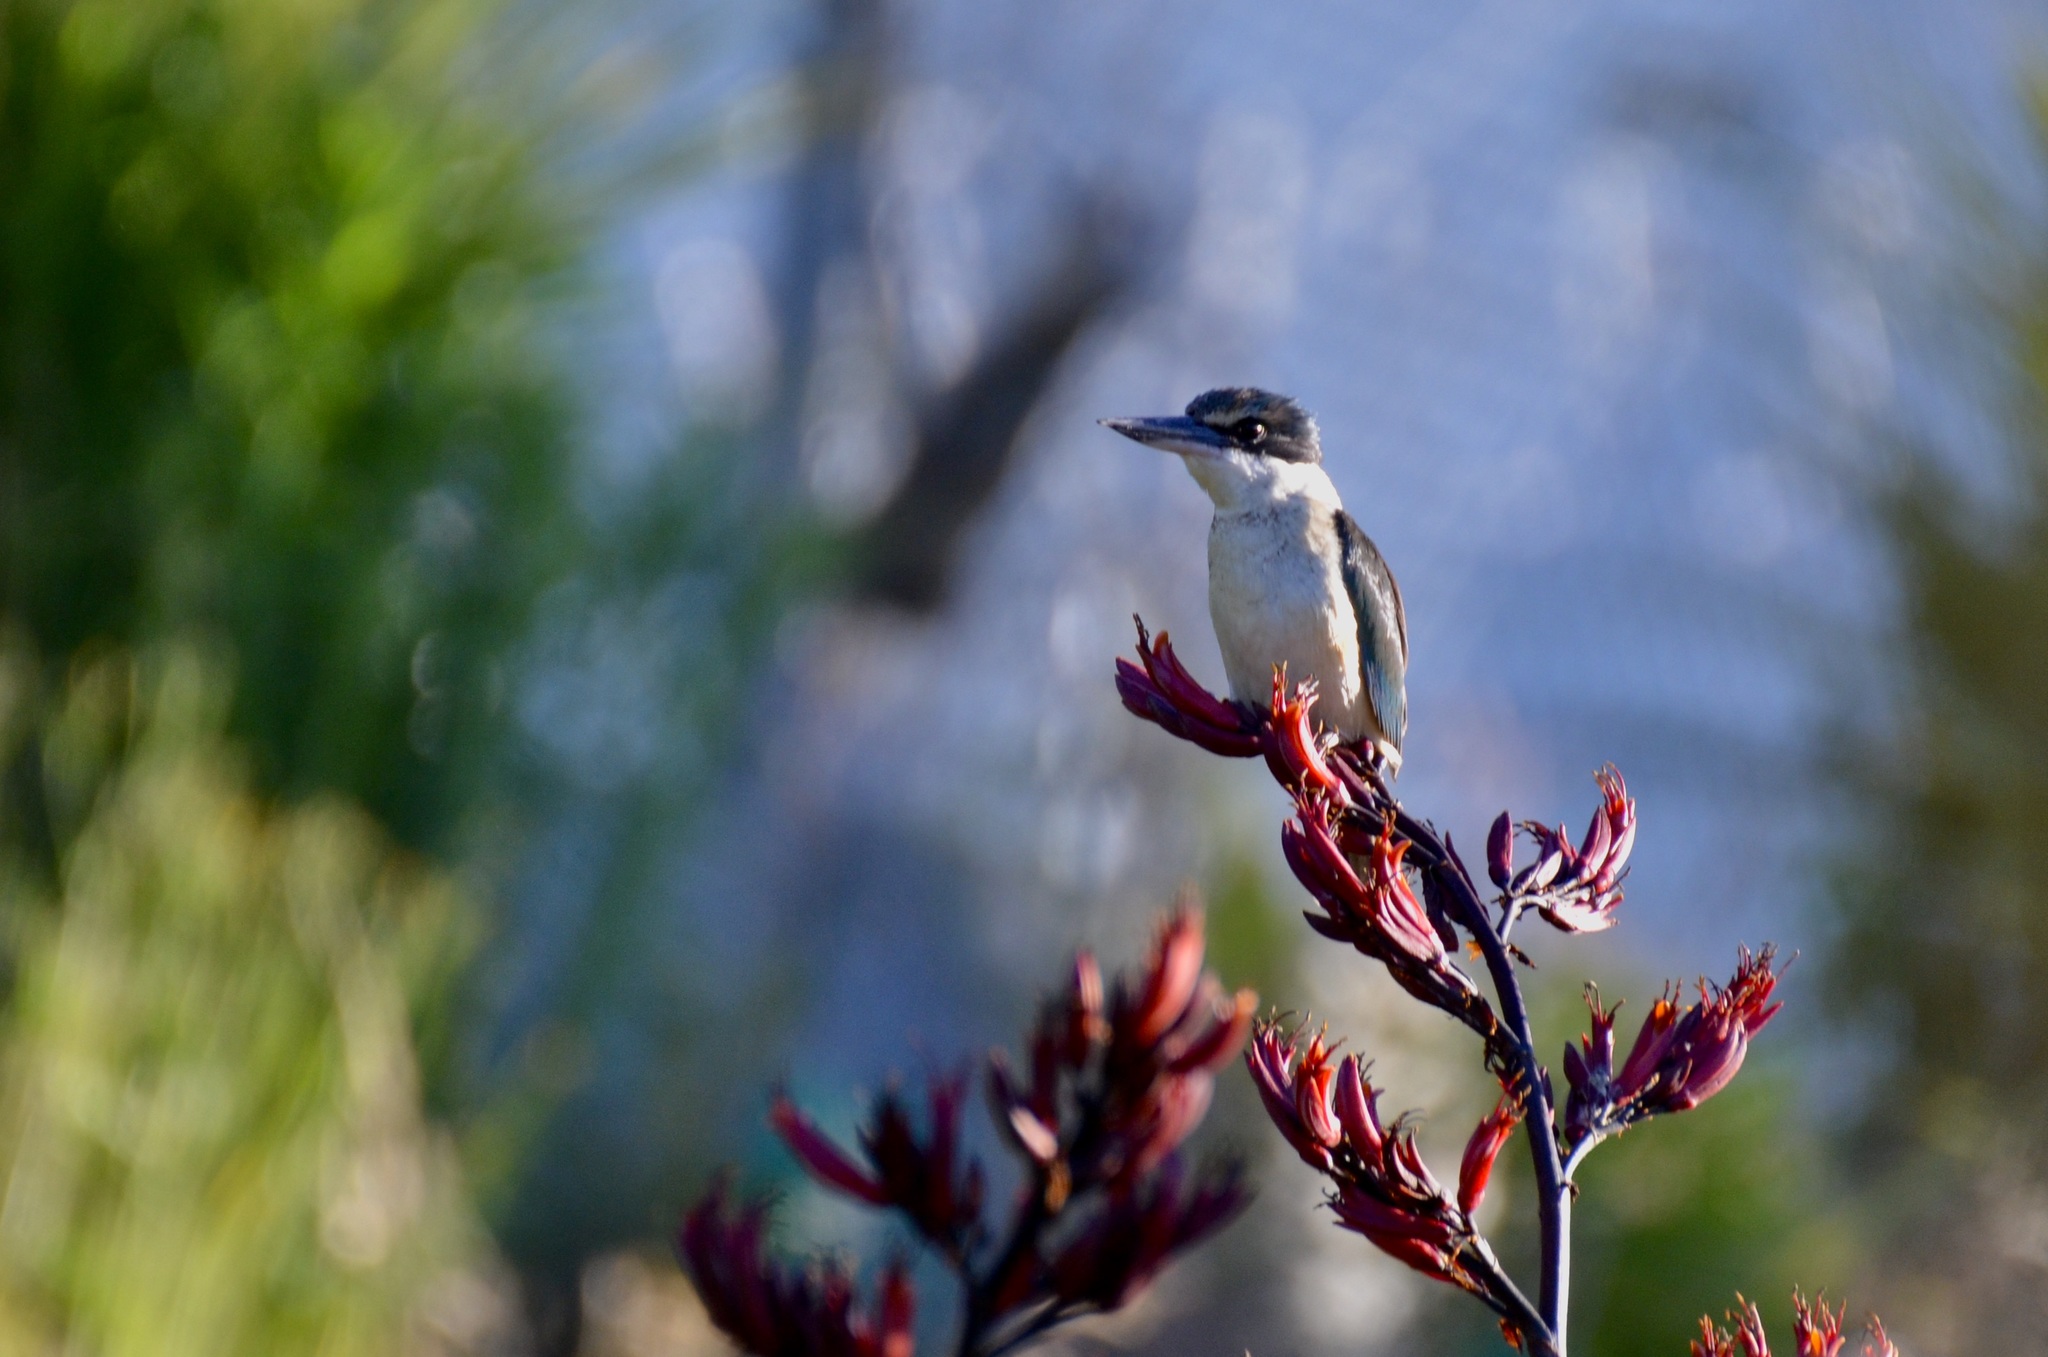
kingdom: Animalia
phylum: Chordata
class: Aves
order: Coraciiformes
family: Alcedinidae
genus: Todiramphus
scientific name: Todiramphus sanctus
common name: Sacred kingfisher
